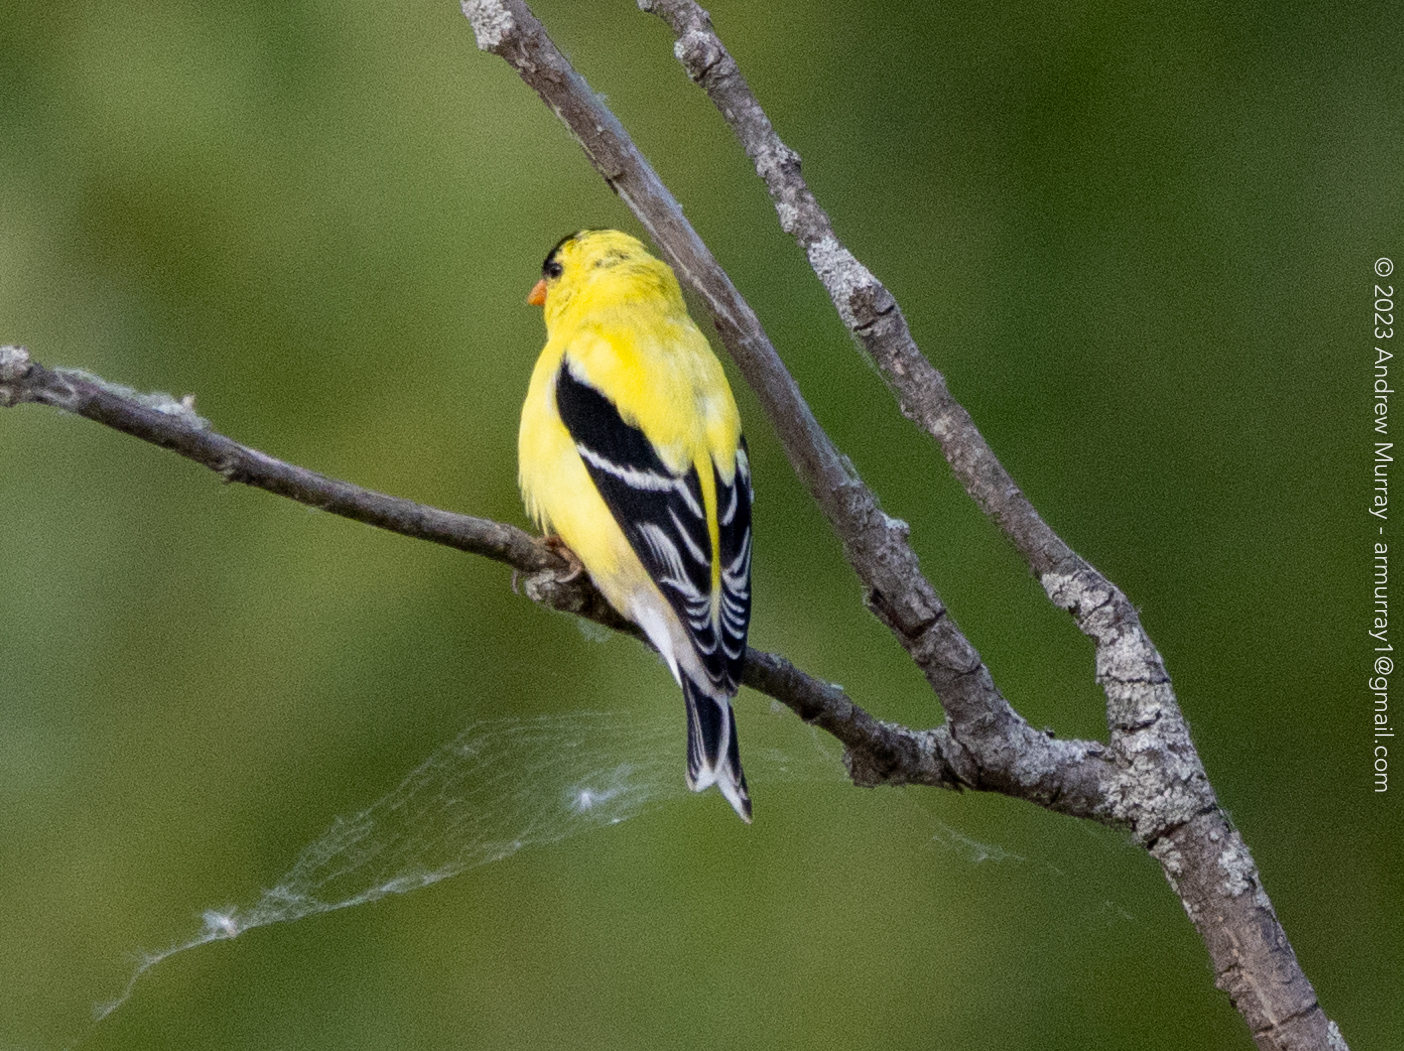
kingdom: Animalia
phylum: Chordata
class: Aves
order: Passeriformes
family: Fringillidae
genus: Spinus
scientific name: Spinus tristis
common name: American goldfinch
